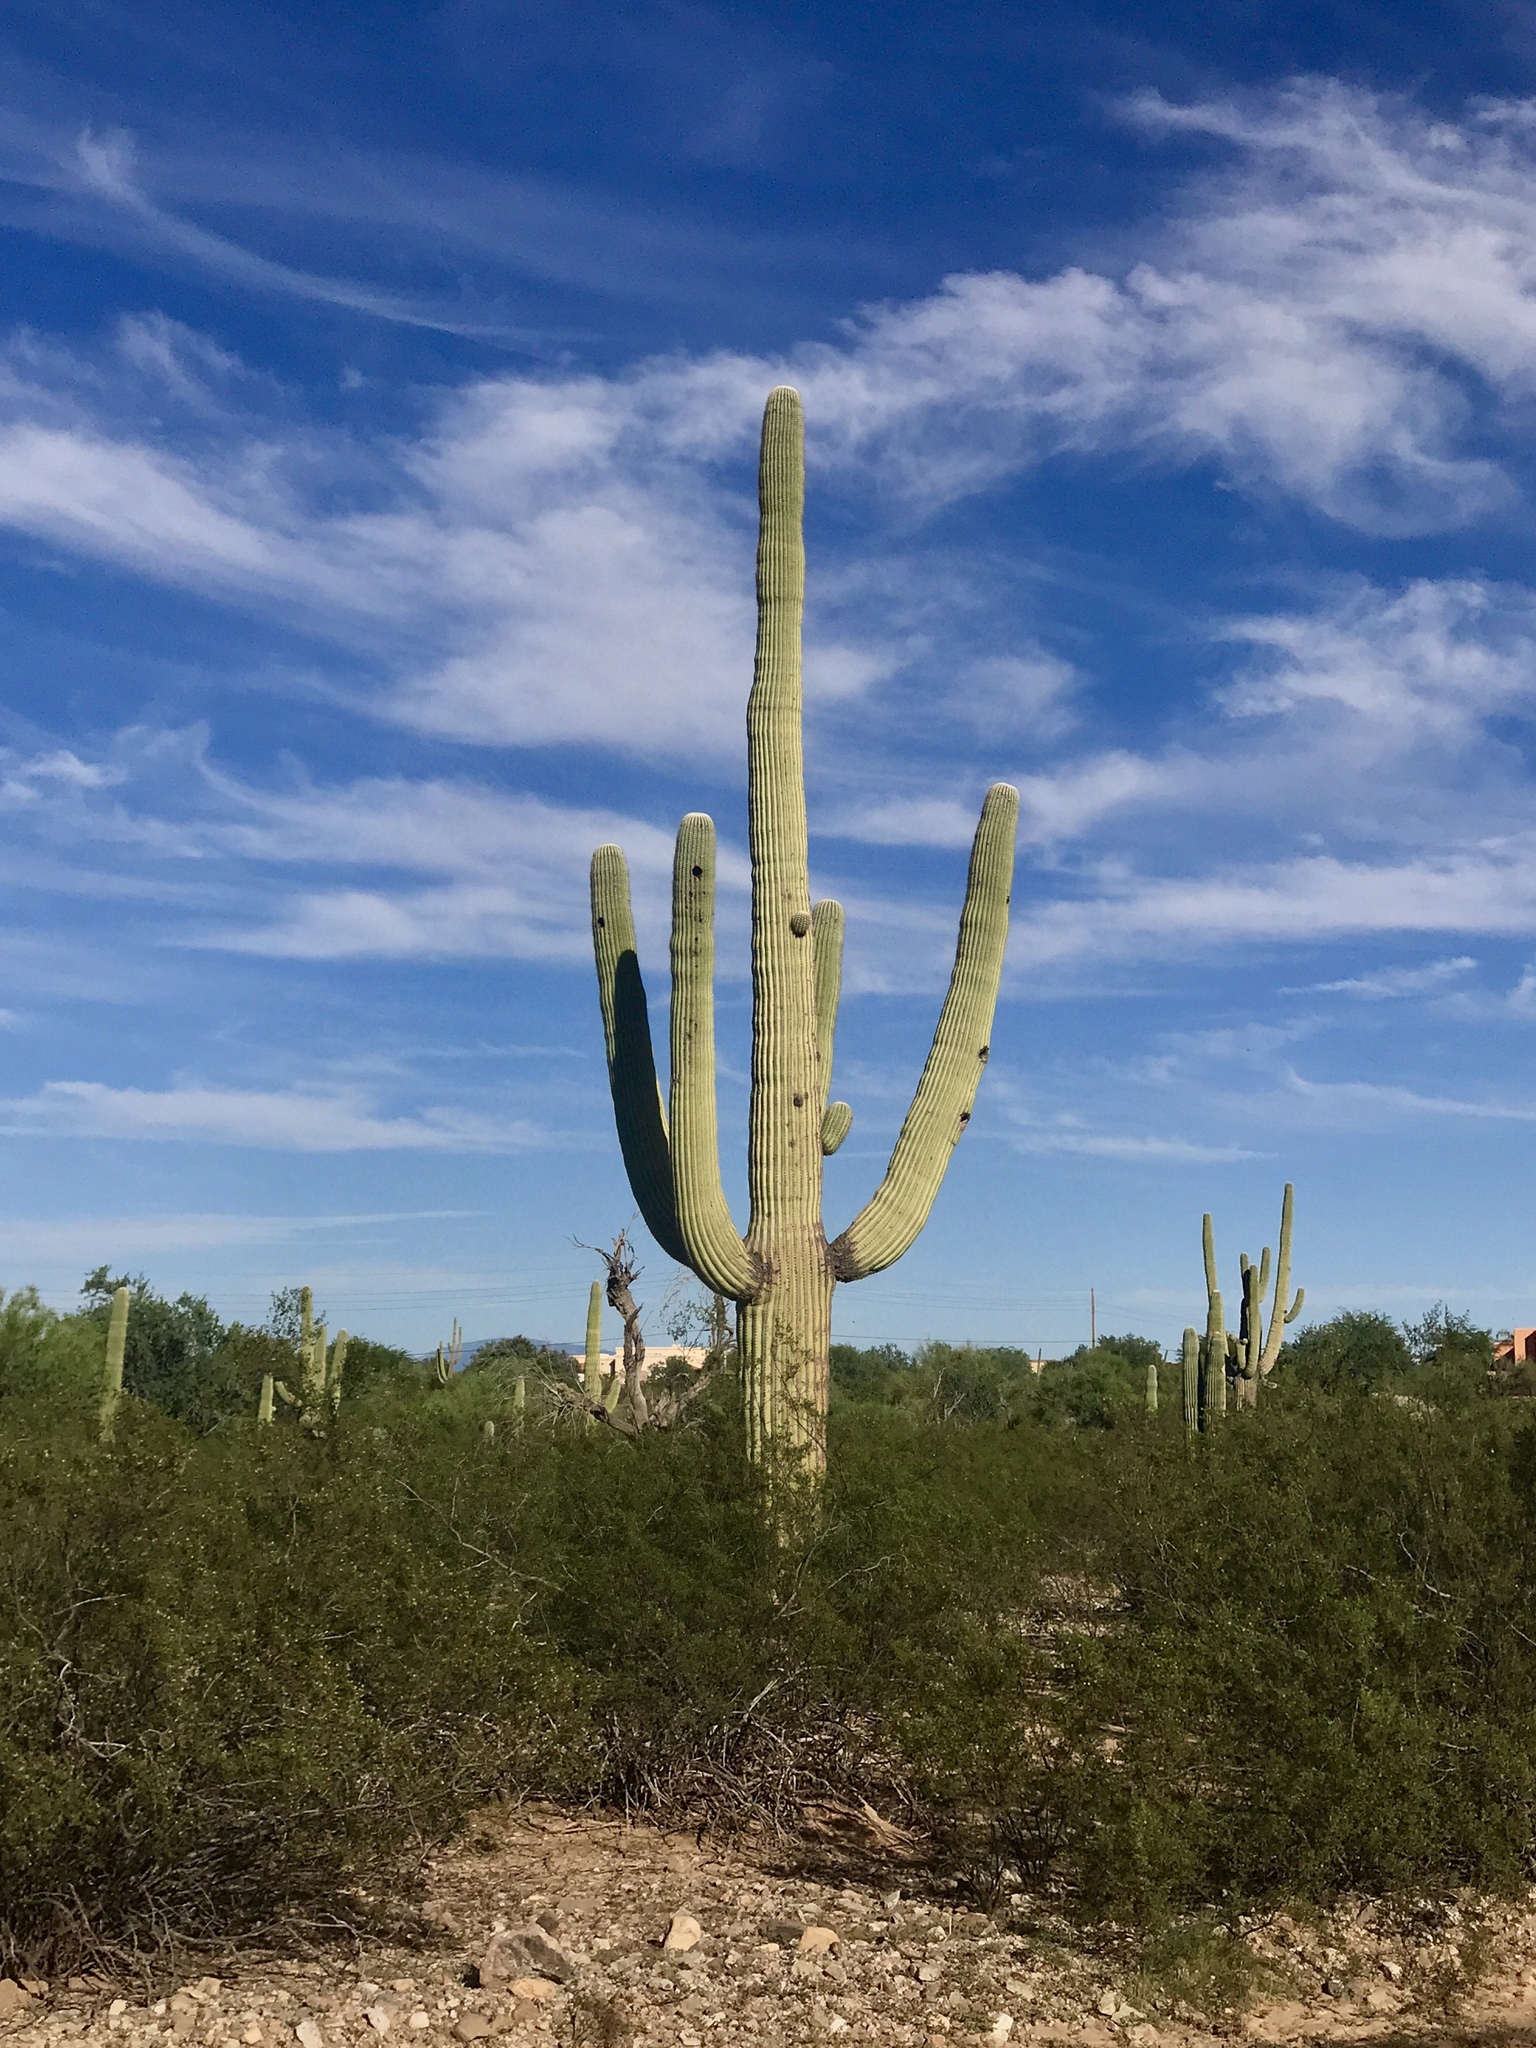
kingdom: Plantae
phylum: Tracheophyta
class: Magnoliopsida
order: Caryophyllales
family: Cactaceae
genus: Carnegiea
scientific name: Carnegiea gigantea
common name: Saguaro
